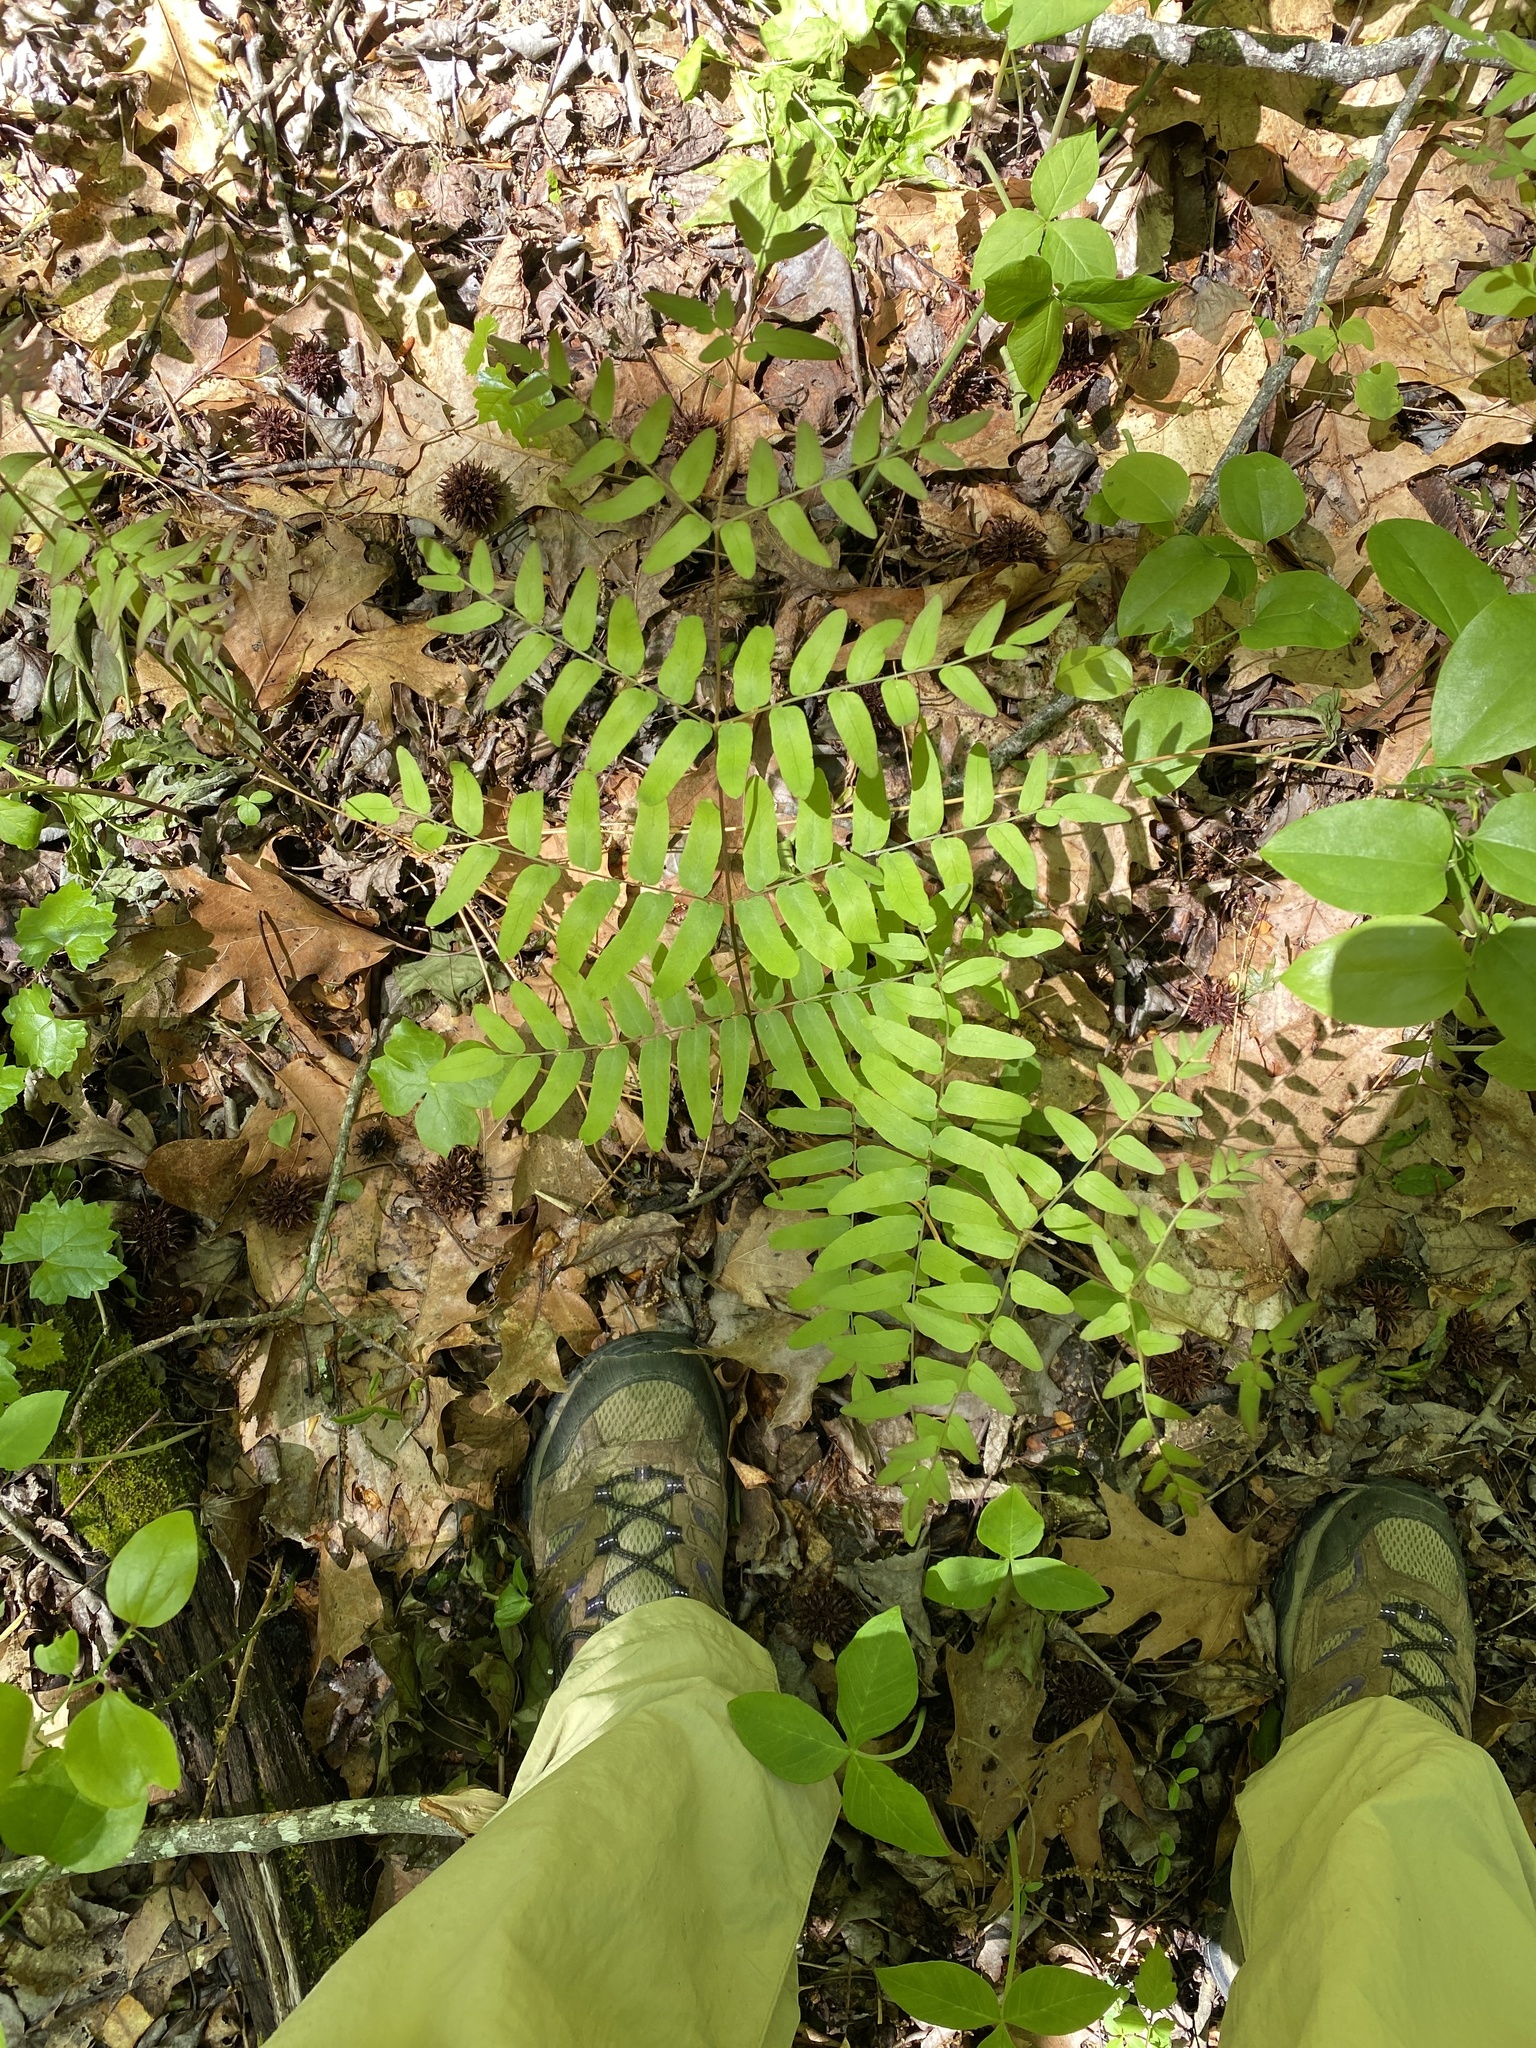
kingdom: Plantae
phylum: Tracheophyta
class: Polypodiopsida
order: Osmundales
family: Osmundaceae
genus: Osmunda
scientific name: Osmunda spectabilis
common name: American royal fern
